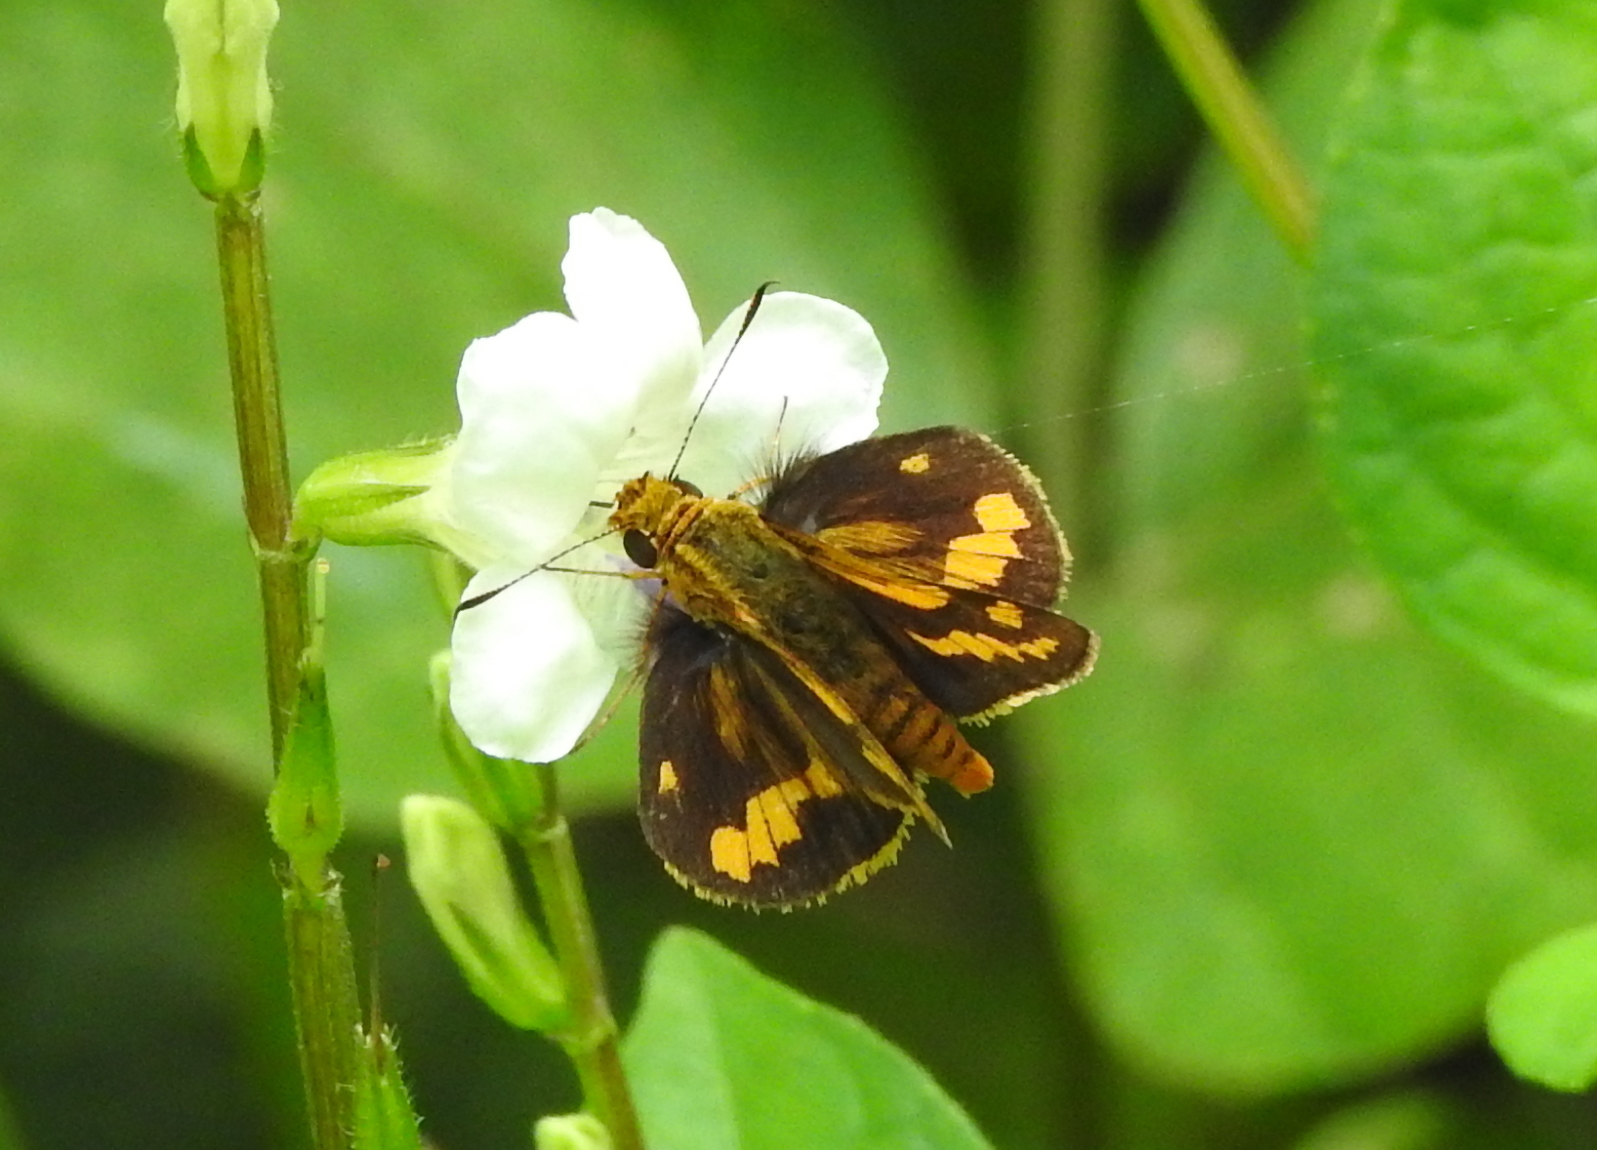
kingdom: Animalia
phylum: Arthropoda
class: Insecta
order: Lepidoptera
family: Hesperiidae
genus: Potanthus
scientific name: Potanthus omaha
